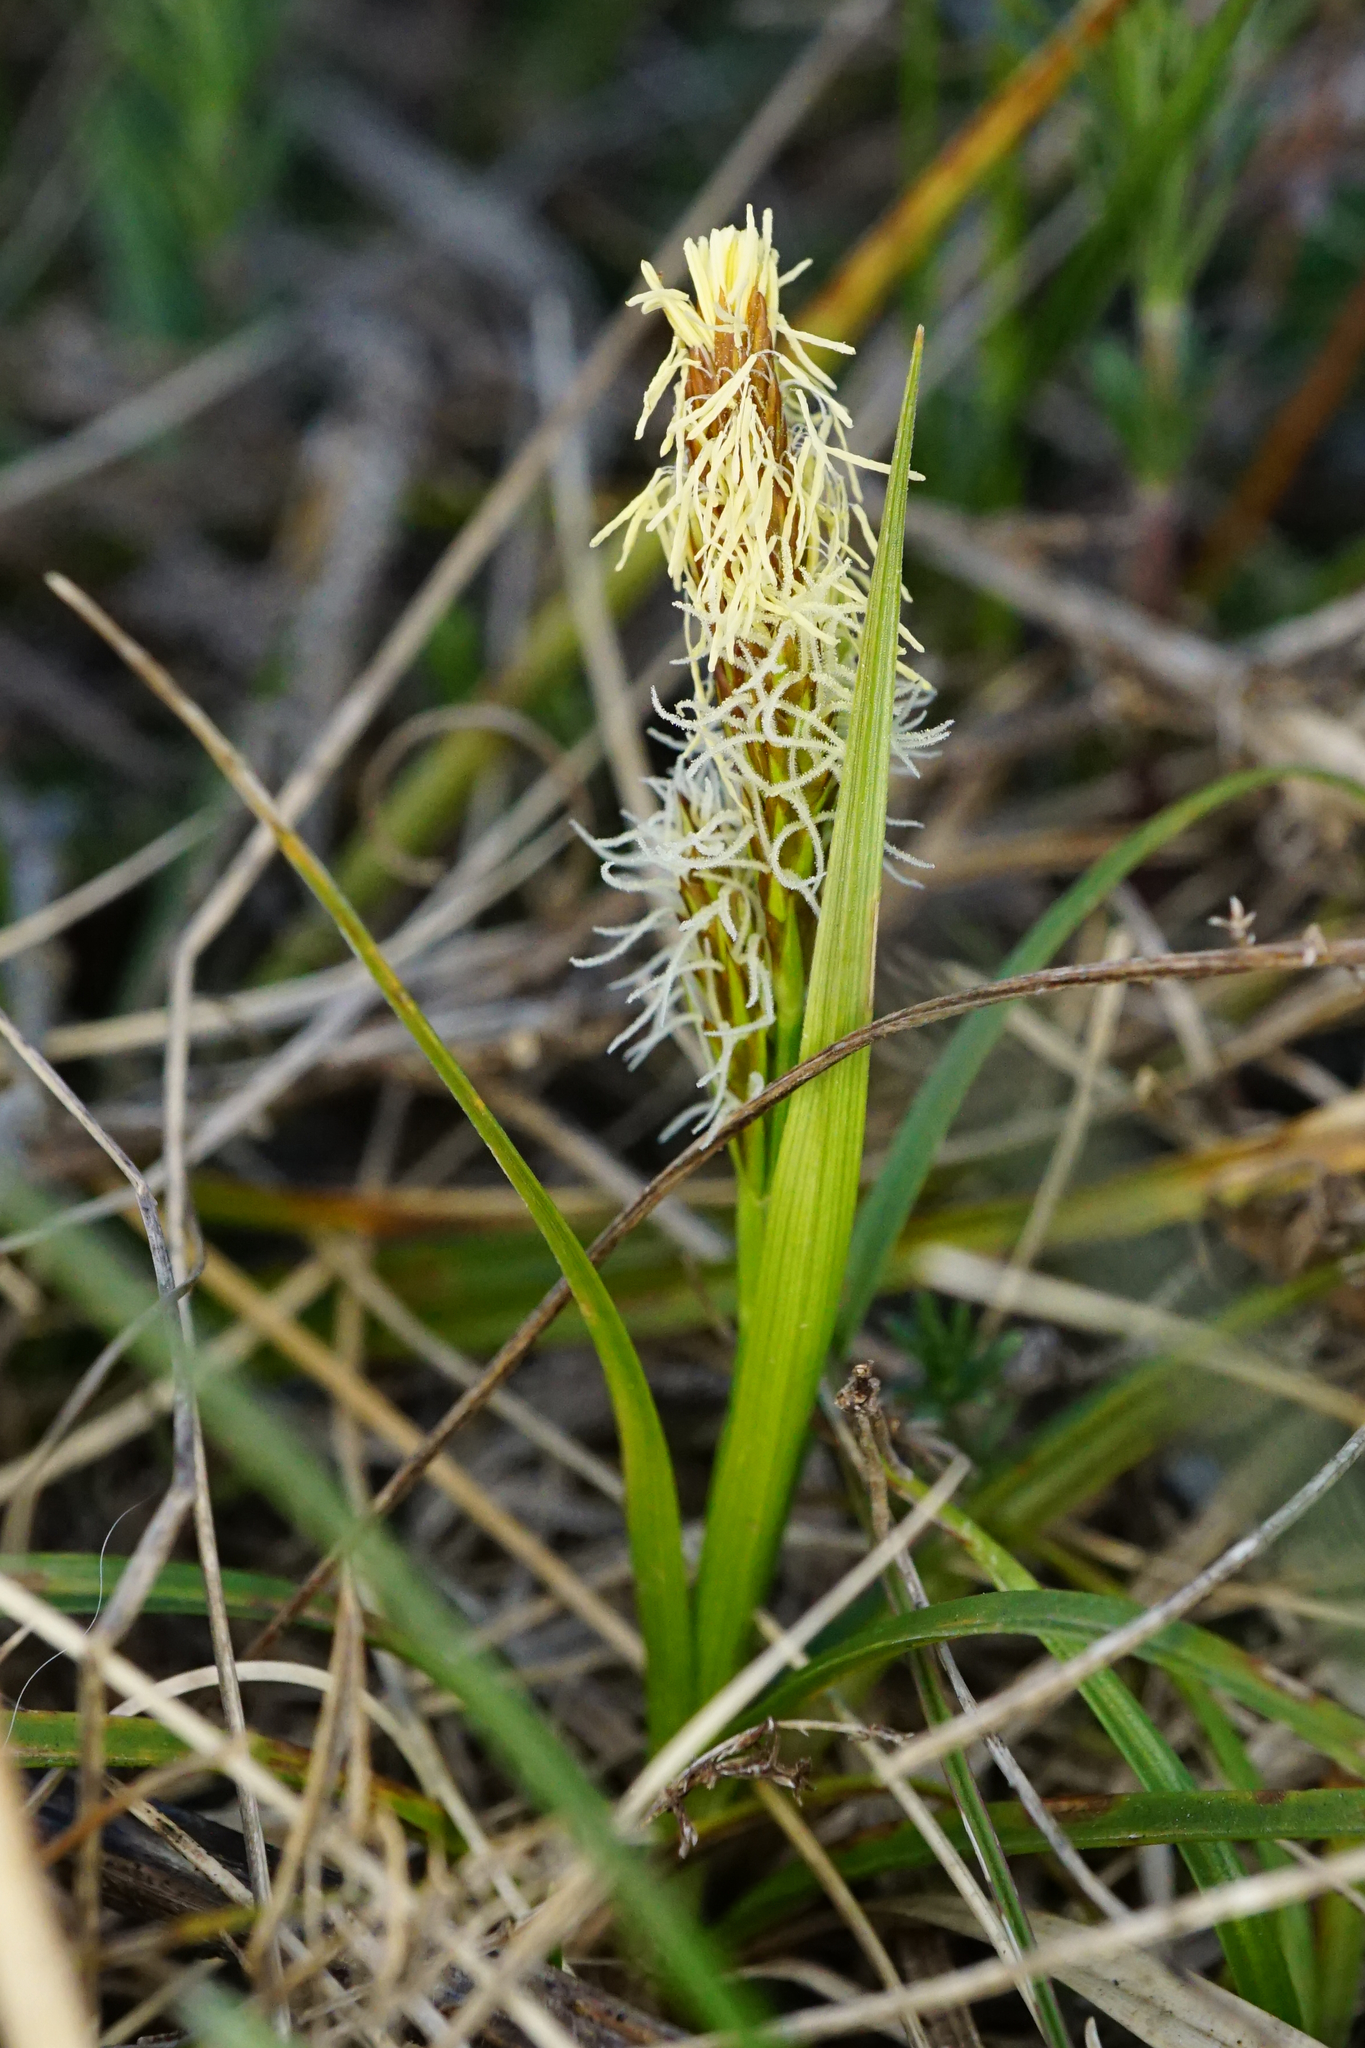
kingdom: Plantae
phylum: Tracheophyta
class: Liliopsida
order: Poales
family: Cyperaceae
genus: Carex
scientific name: Carex caryophyllea
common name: Spring sedge
